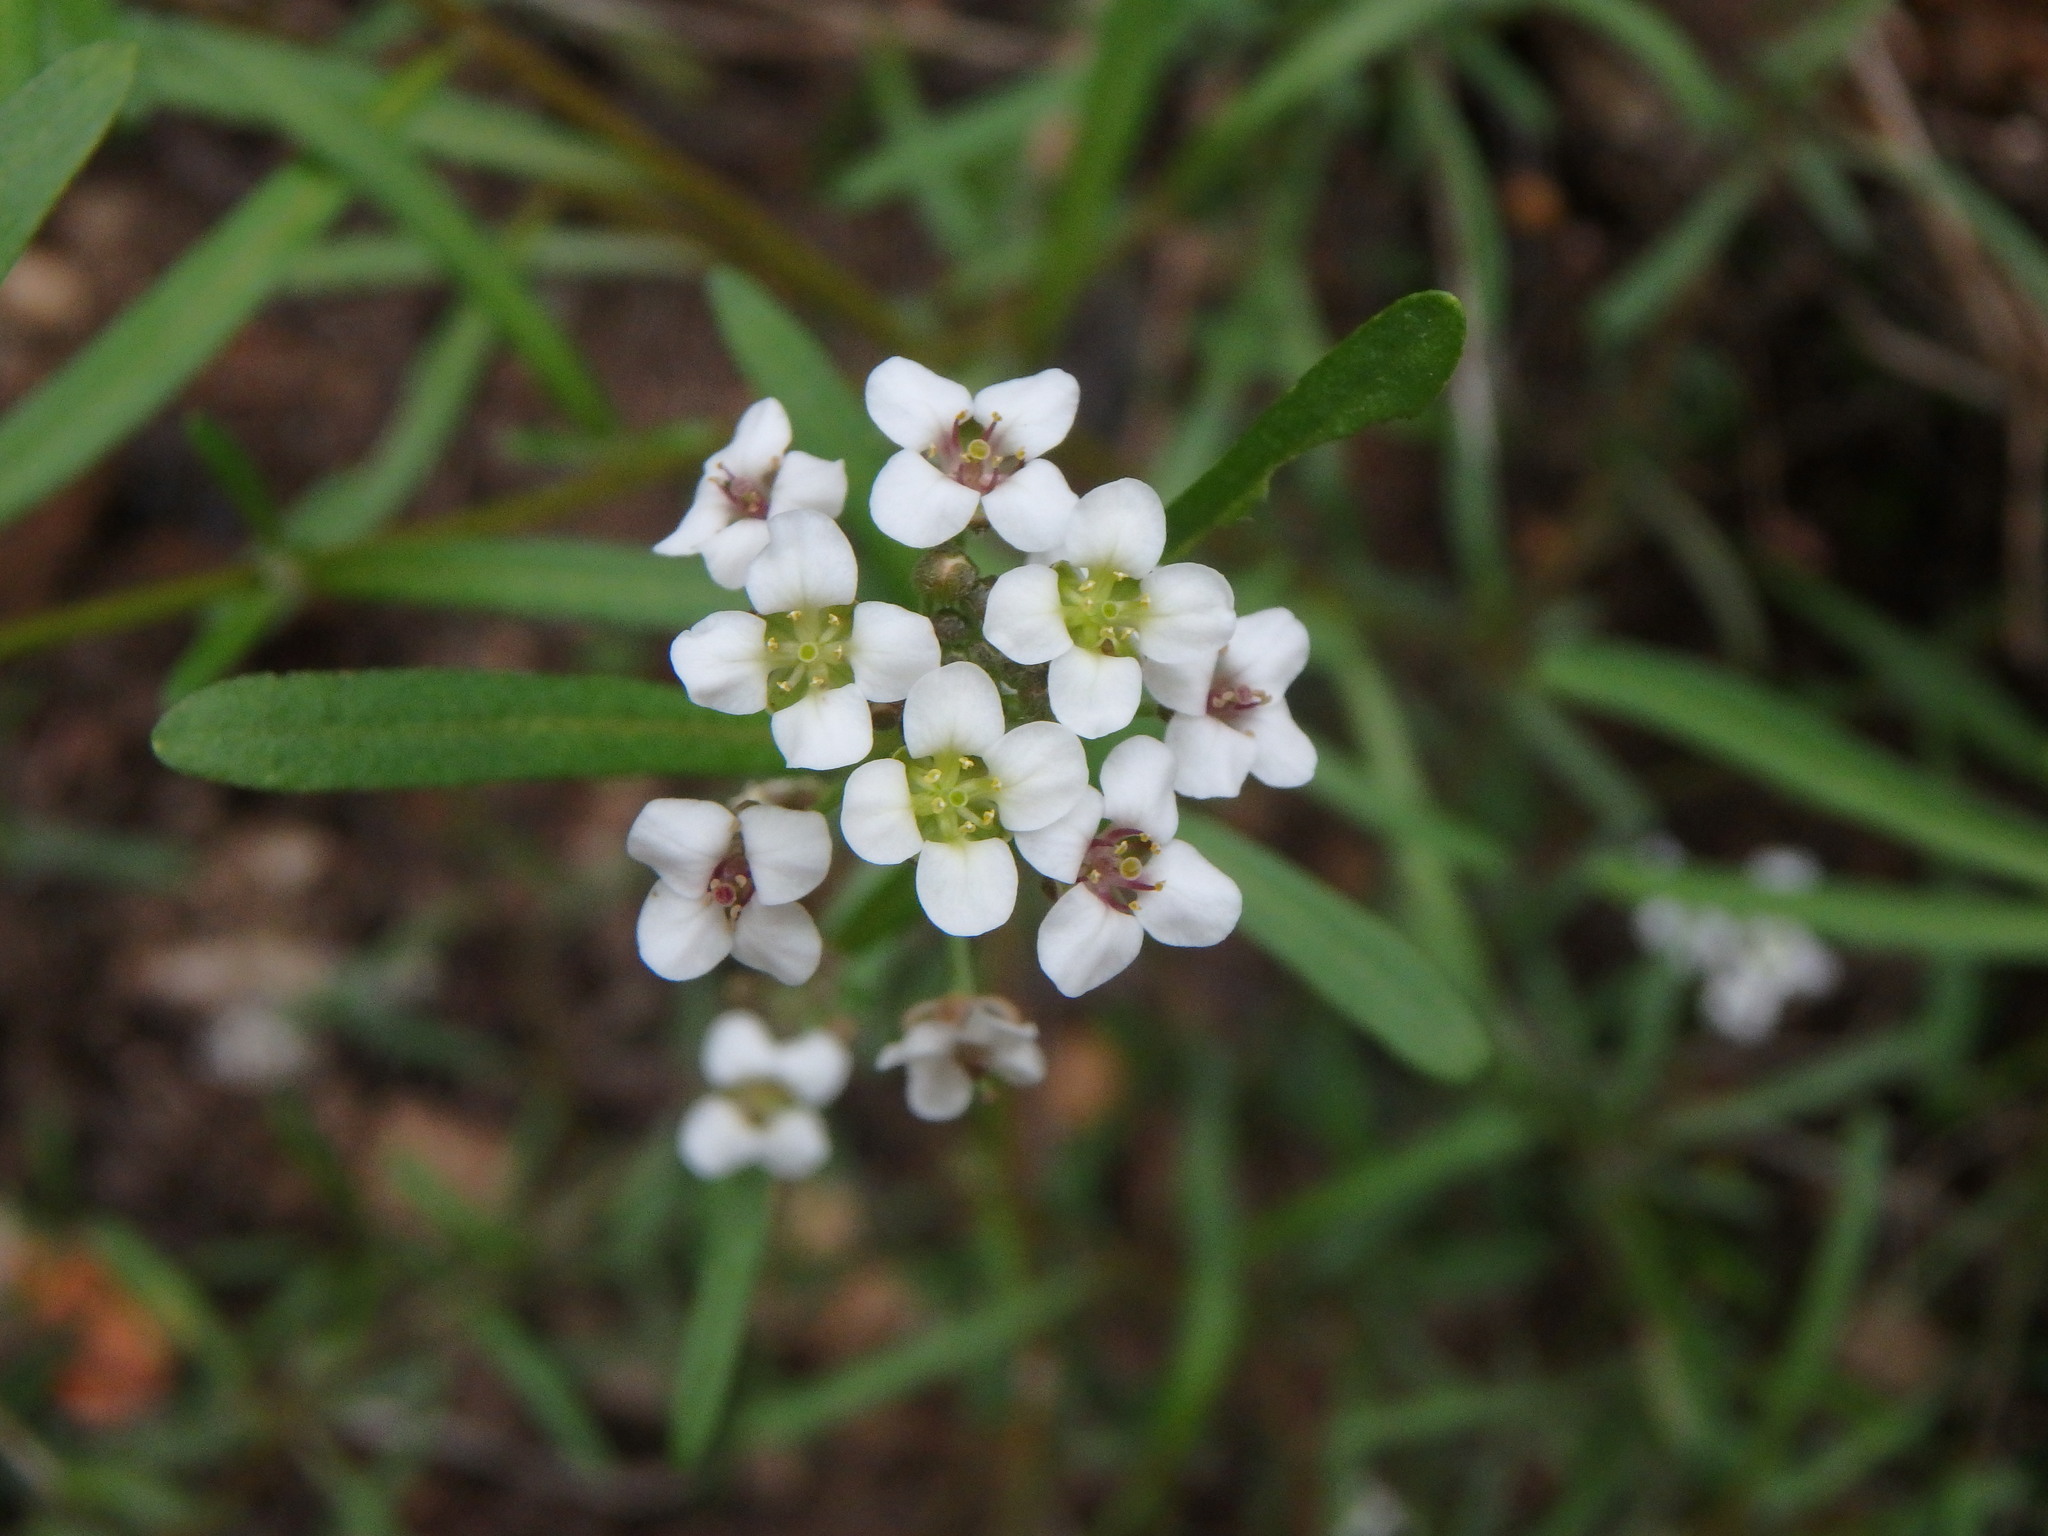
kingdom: Plantae
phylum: Tracheophyta
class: Magnoliopsida
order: Brassicales
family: Brassicaceae
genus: Lobularia
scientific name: Lobularia canariensis
